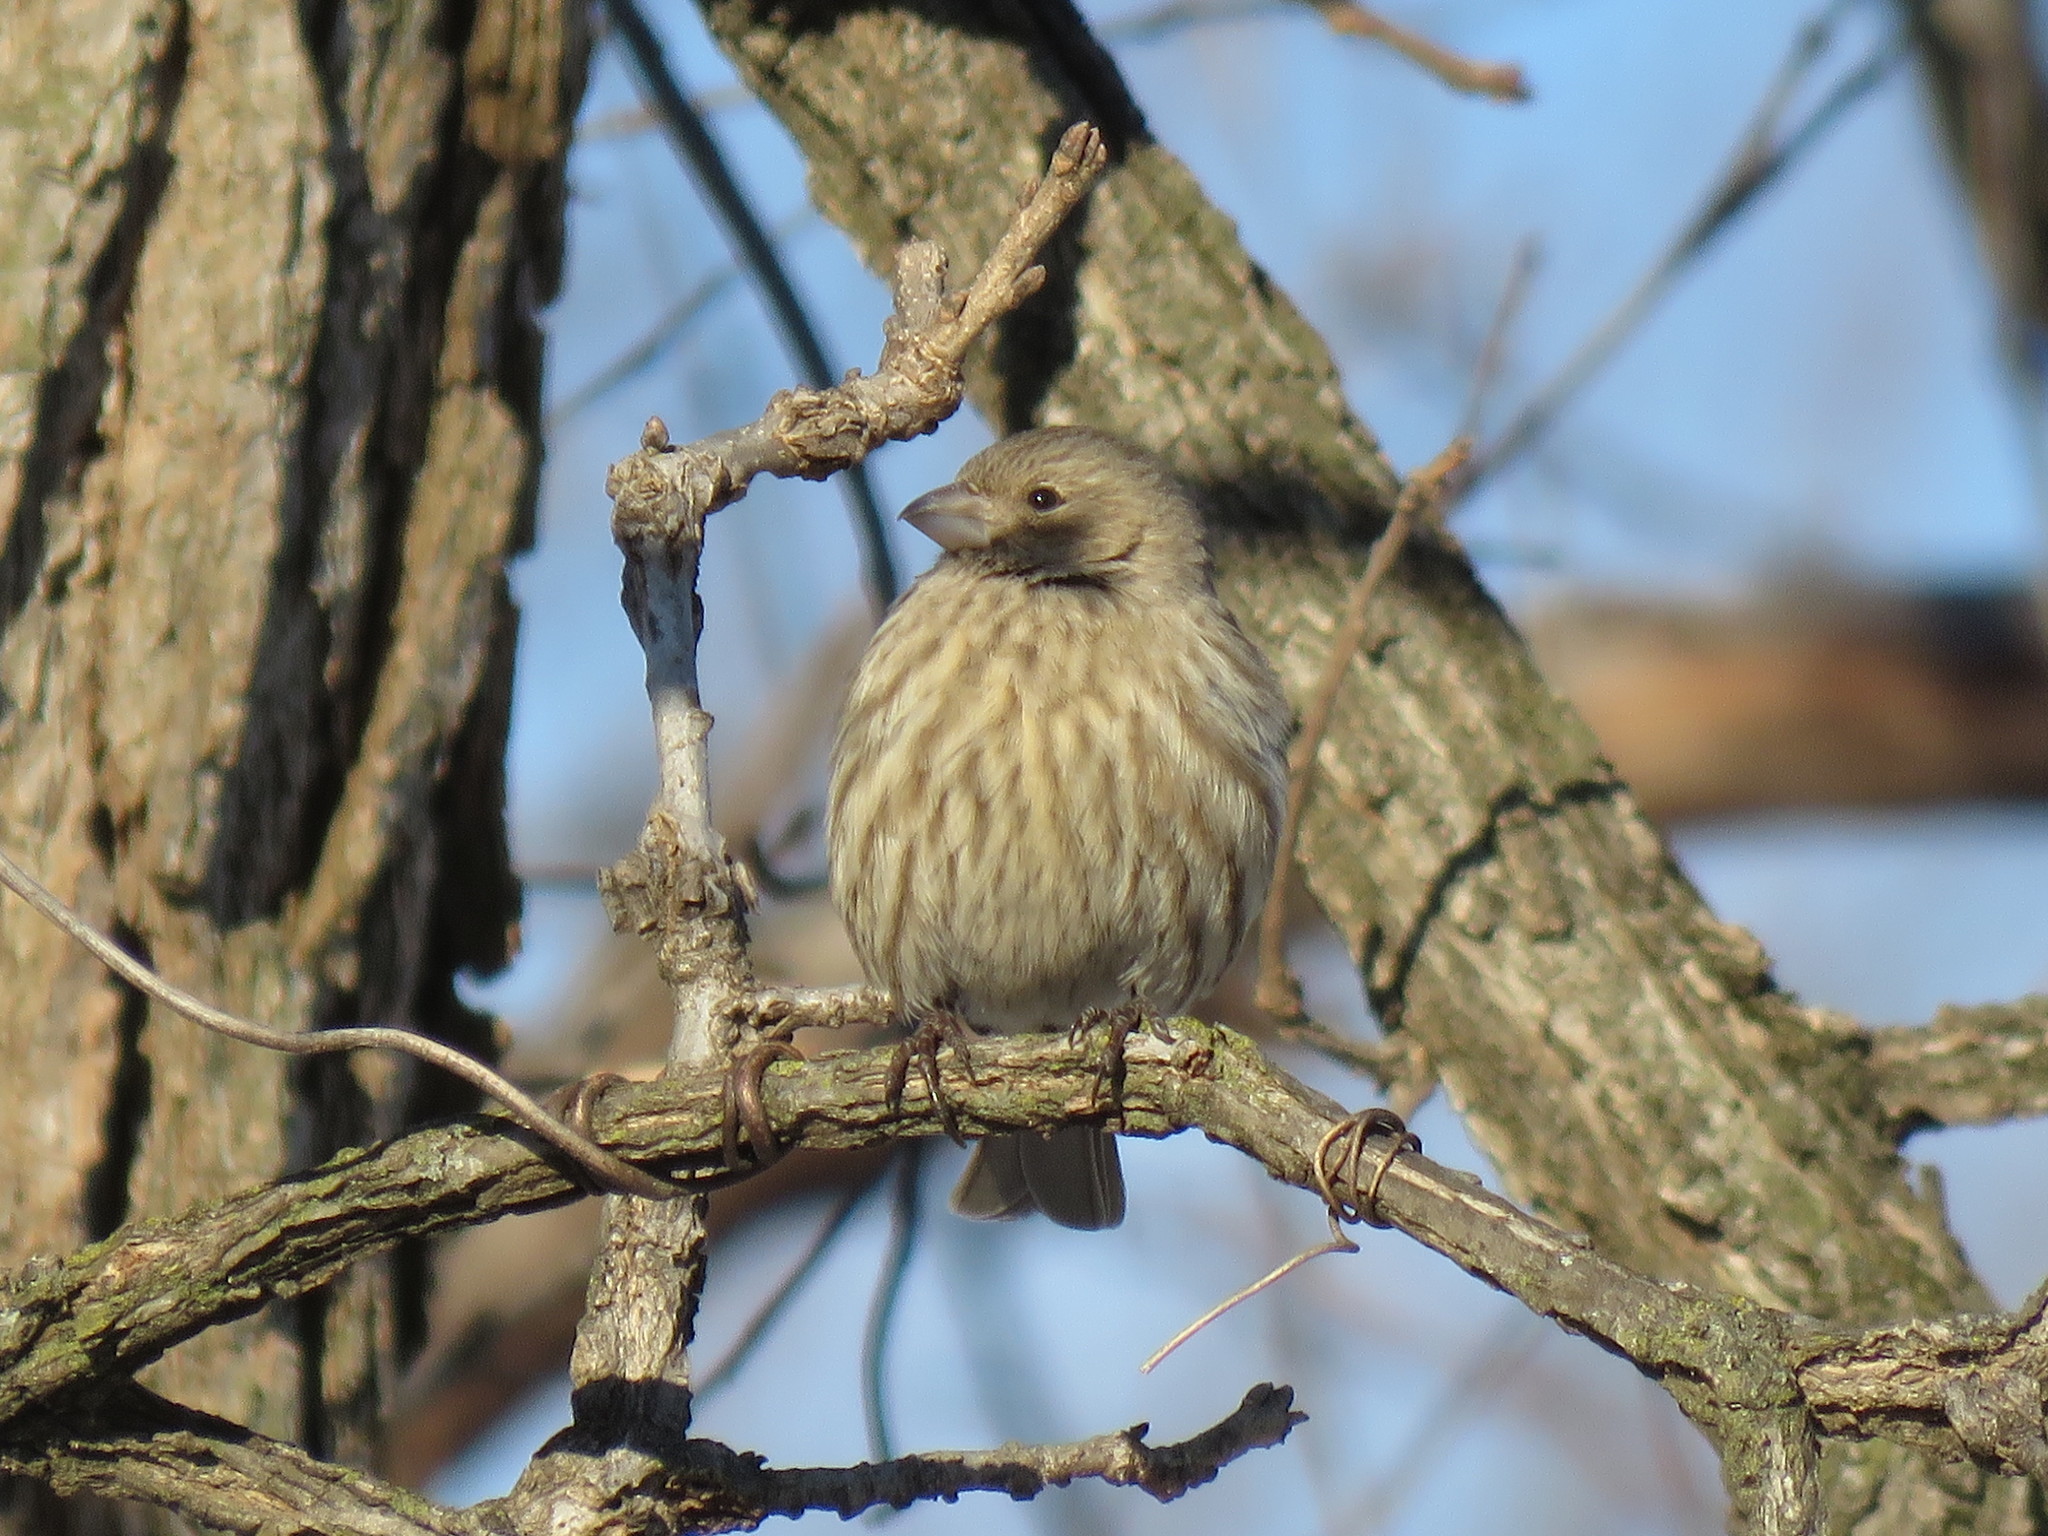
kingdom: Animalia
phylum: Chordata
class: Aves
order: Passeriformes
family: Fringillidae
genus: Haemorhous
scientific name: Haemorhous mexicanus
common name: House finch
